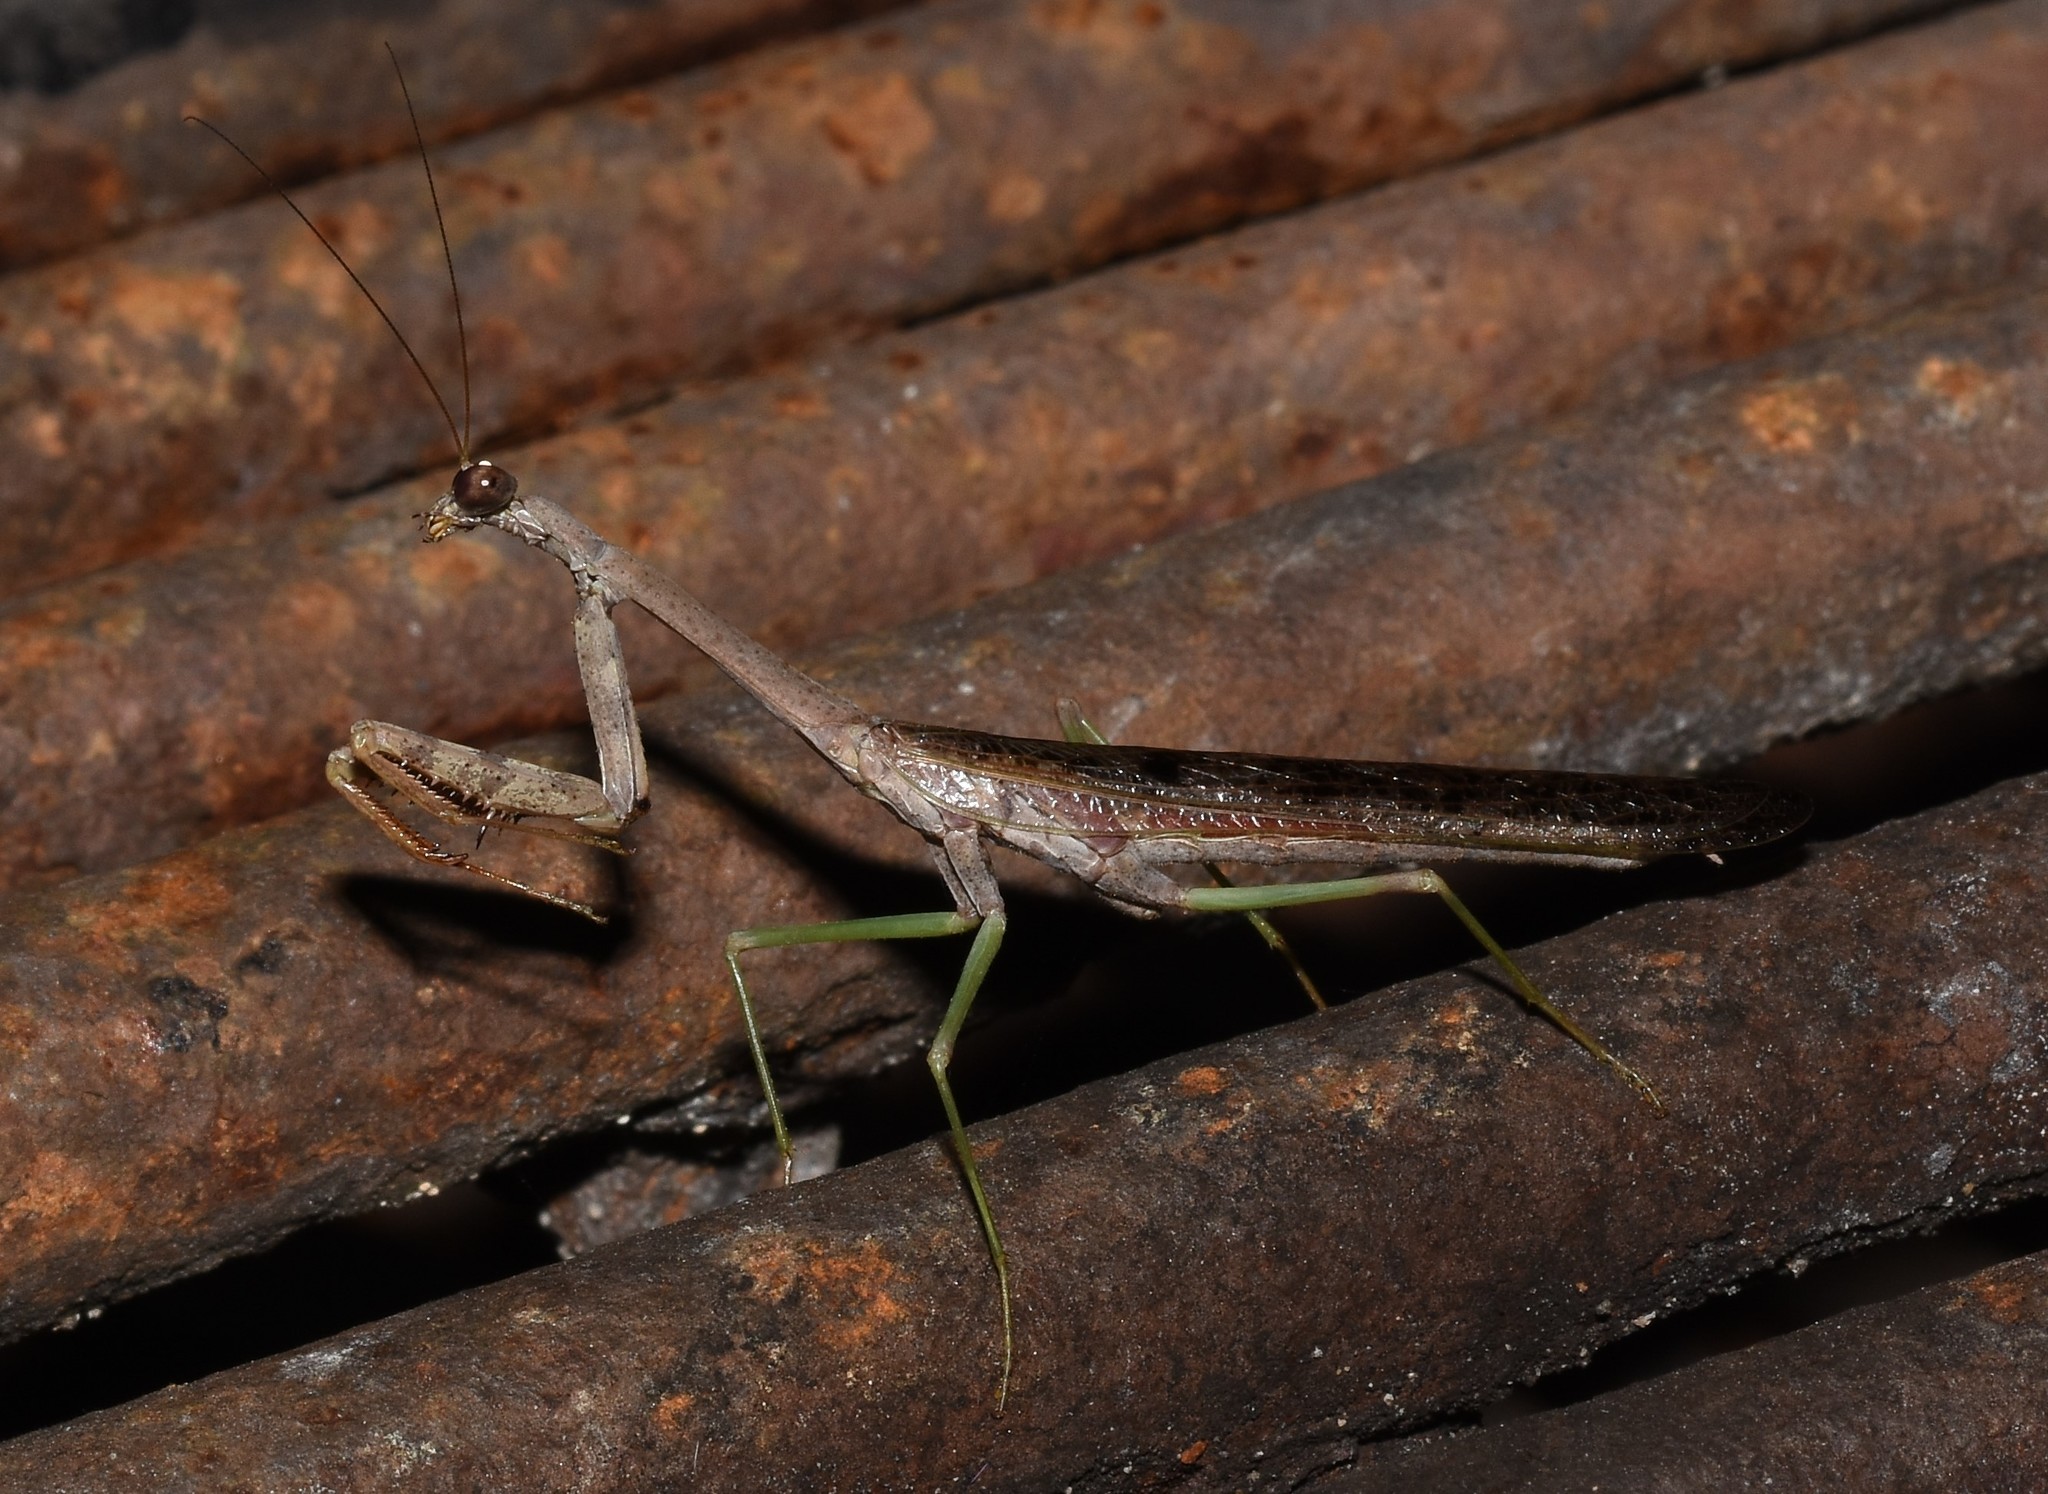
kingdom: Animalia
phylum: Arthropoda
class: Insecta
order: Mantodea
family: Mantidae
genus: Stagmomantis
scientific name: Stagmomantis carolina
